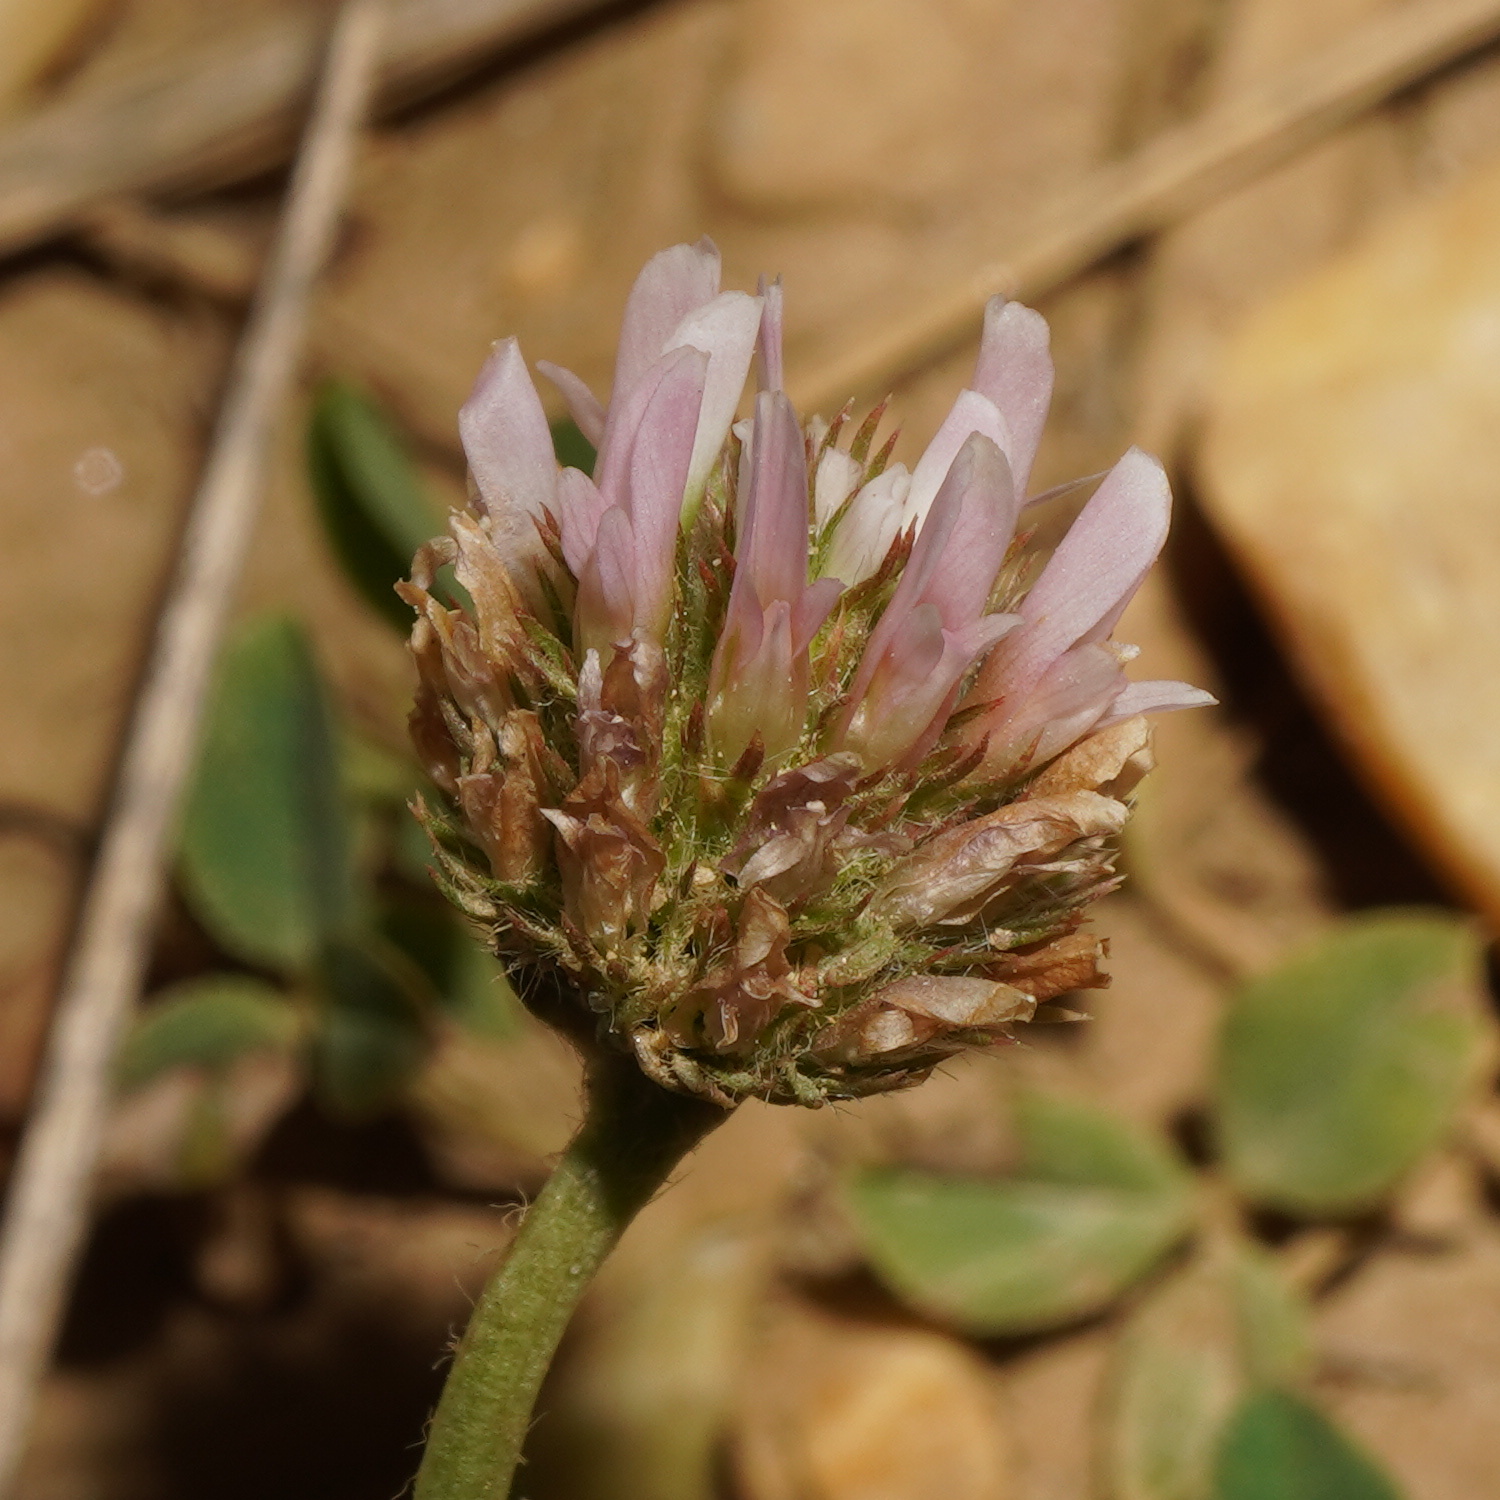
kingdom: Plantae
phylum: Tracheophyta
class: Magnoliopsida
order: Fabales
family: Fabaceae
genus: Trifolium
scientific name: Trifolium fragiferum
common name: Strawberry clover
